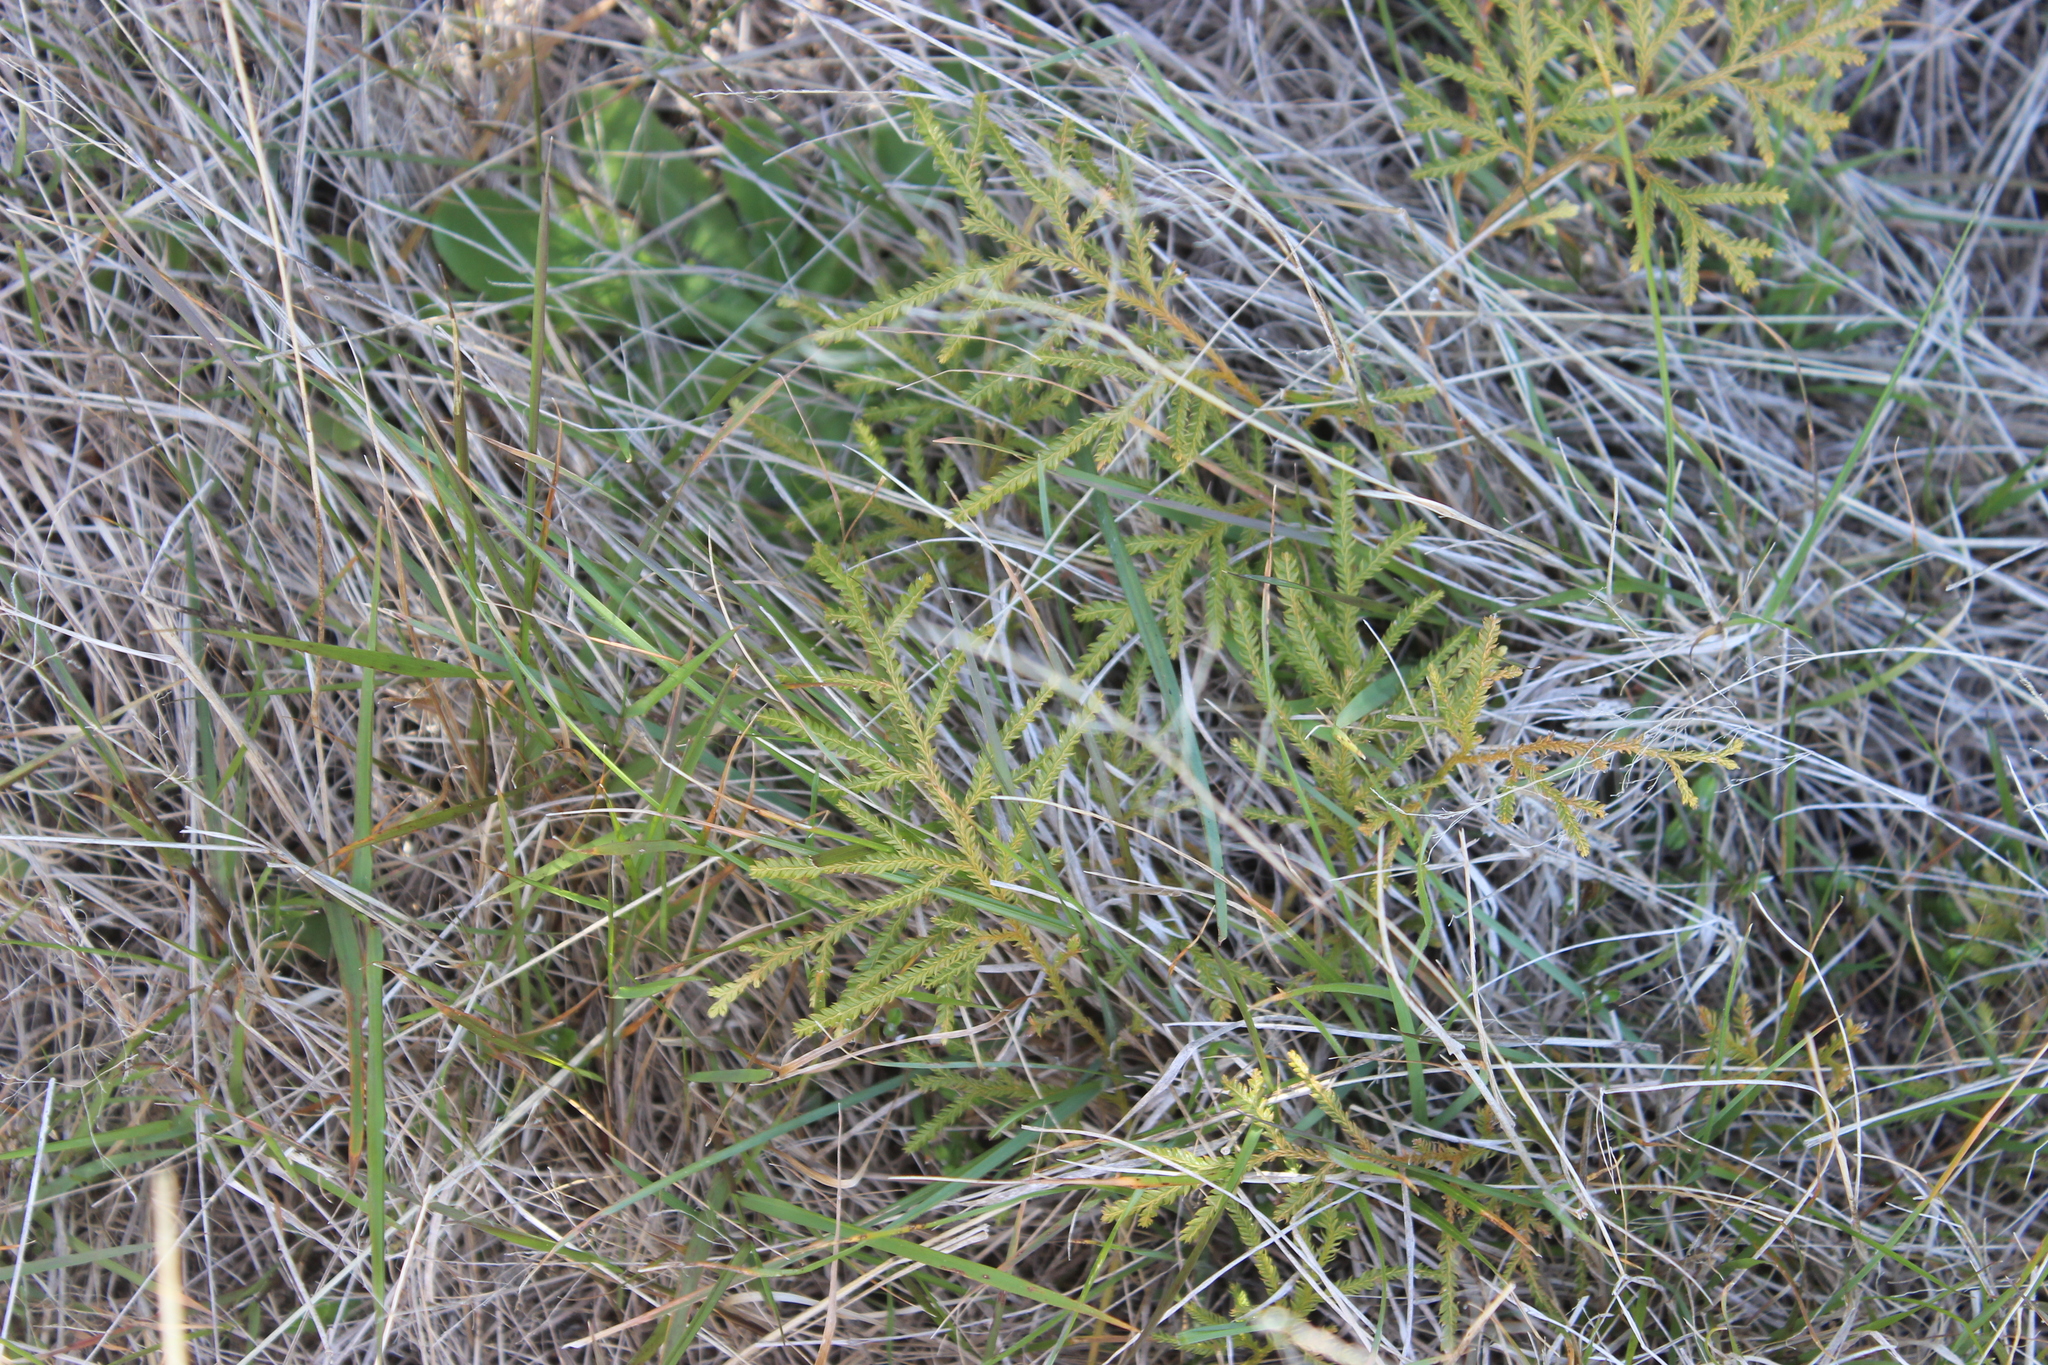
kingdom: Plantae
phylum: Tracheophyta
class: Lycopodiopsida
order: Lycopodiales
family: Lycopodiaceae
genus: Lycopodium
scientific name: Lycopodium volubile
